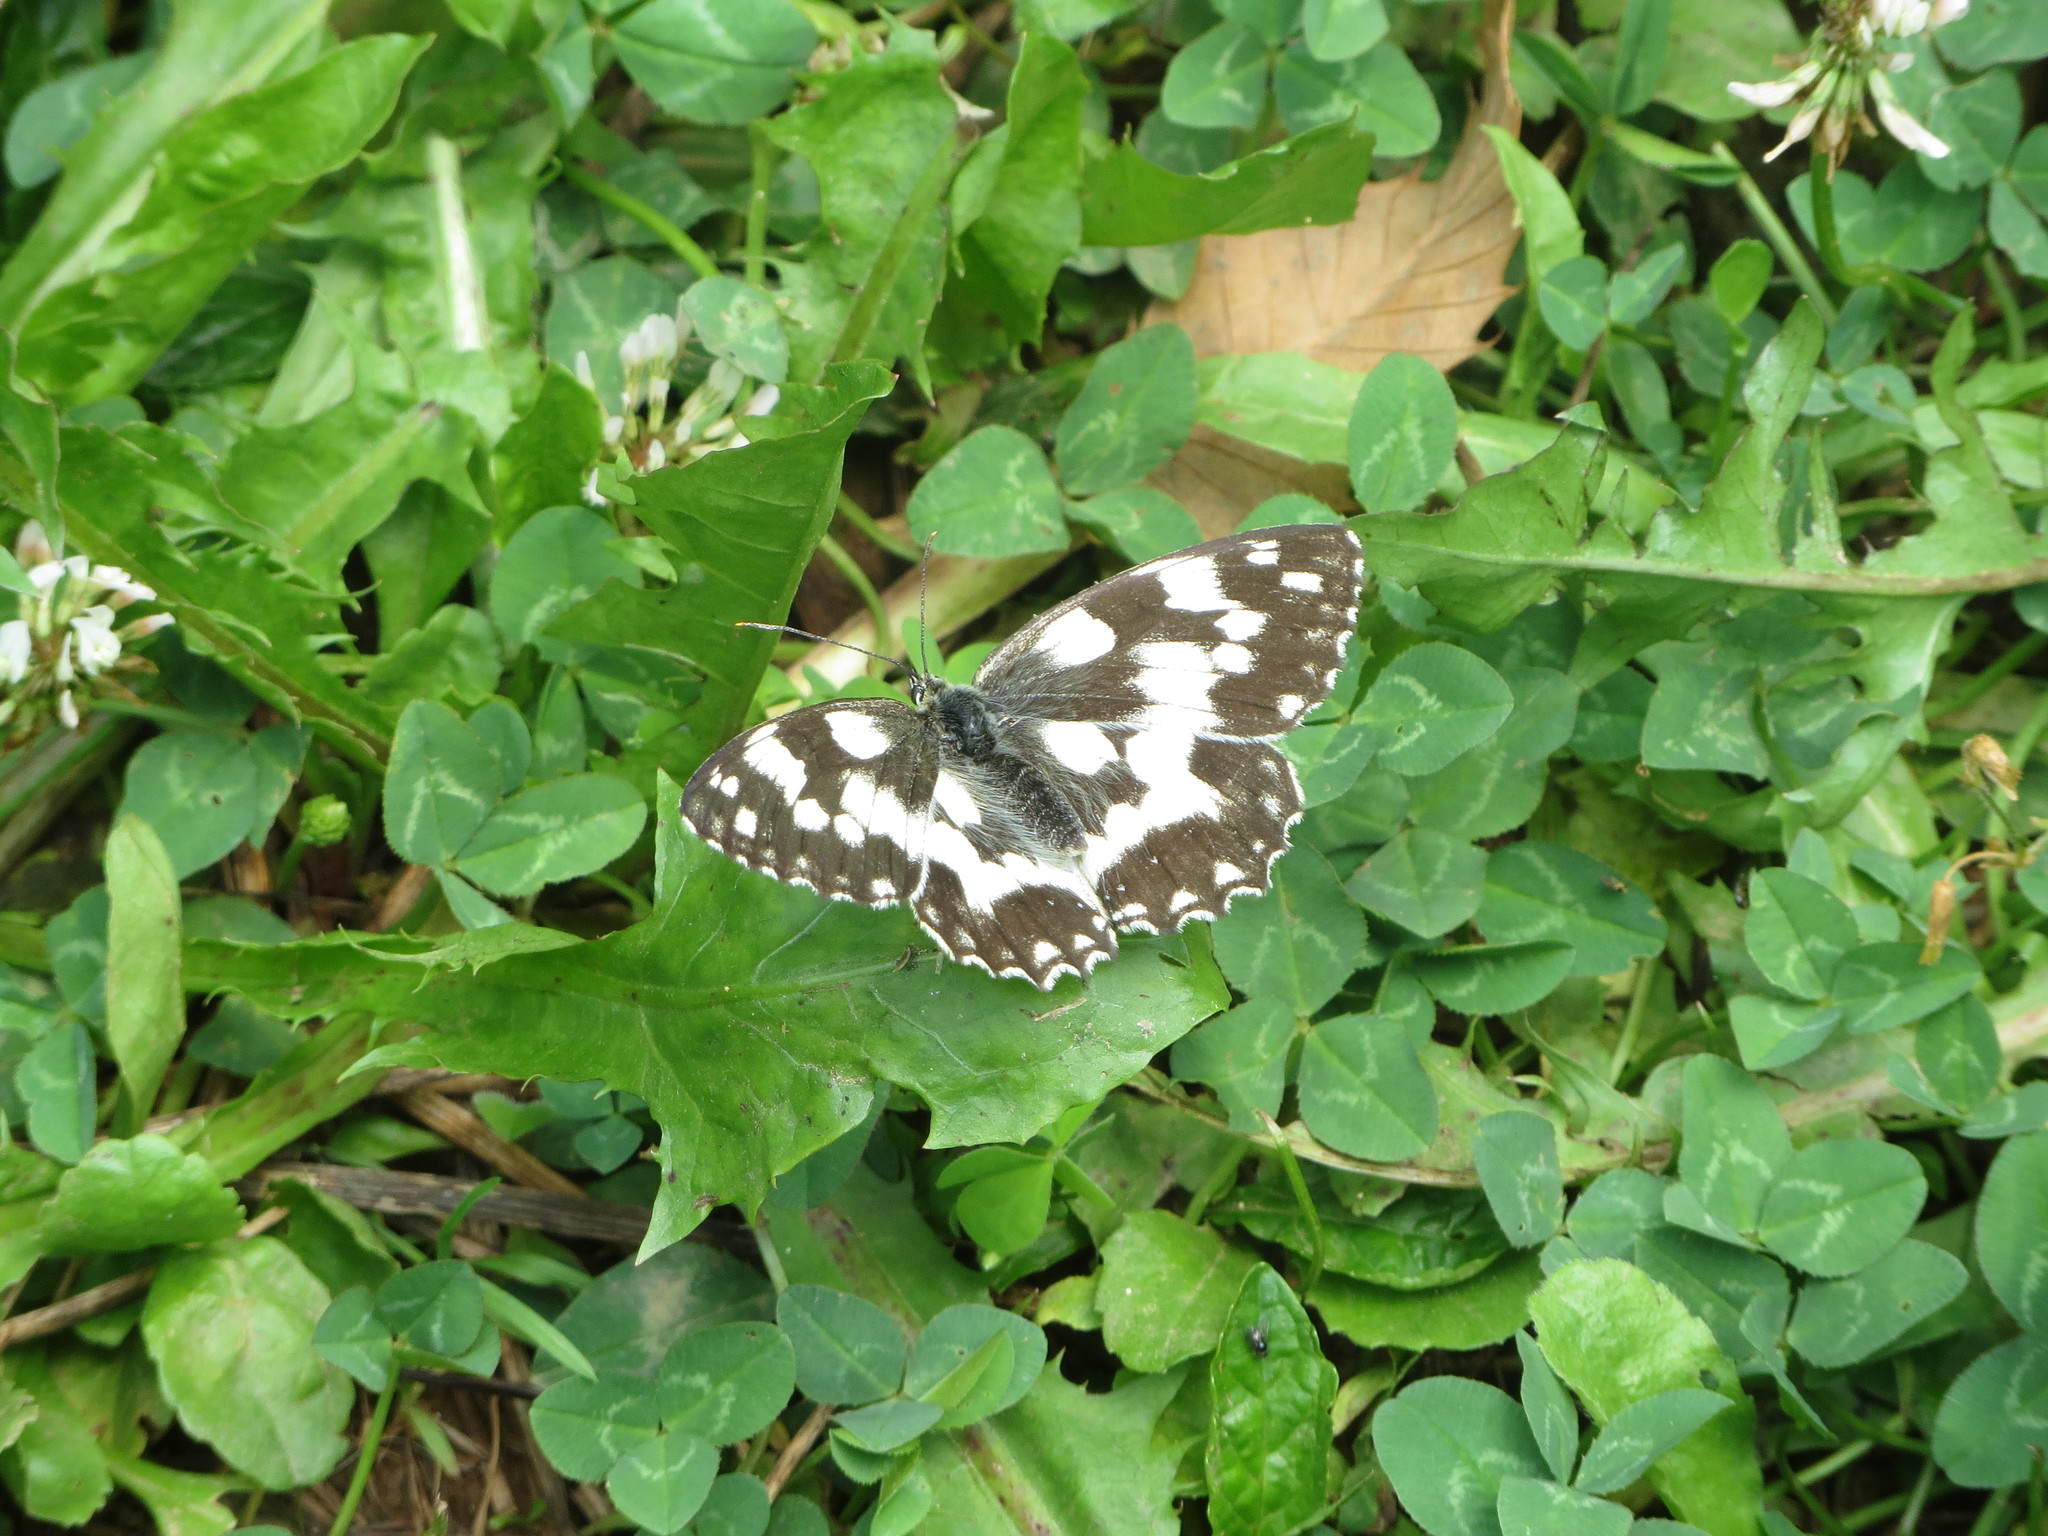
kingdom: Animalia
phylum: Arthropoda
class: Insecta
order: Lepidoptera
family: Nymphalidae
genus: Melanargia
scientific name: Melanargia galathea
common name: Marbled white
